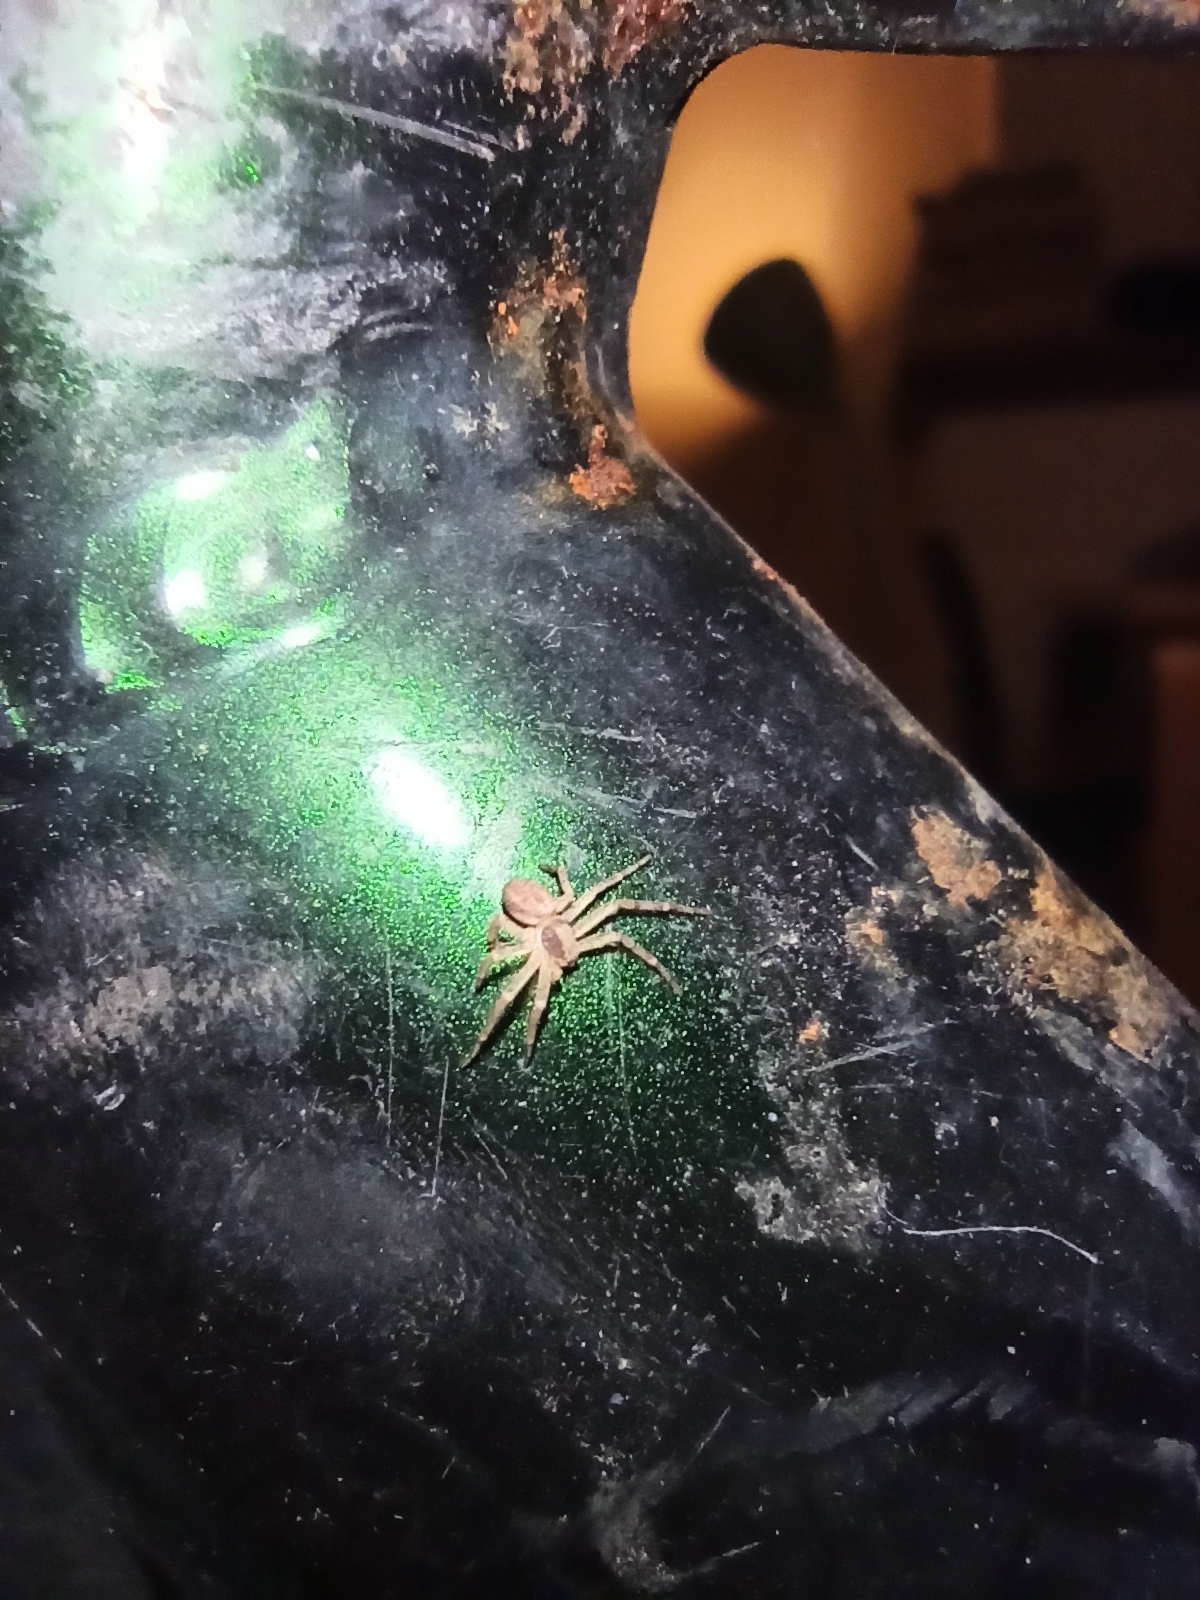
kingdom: Animalia
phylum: Arthropoda
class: Arachnida
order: Araneae
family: Philodromidae
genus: Philodromus
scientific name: Philodromus dispar
